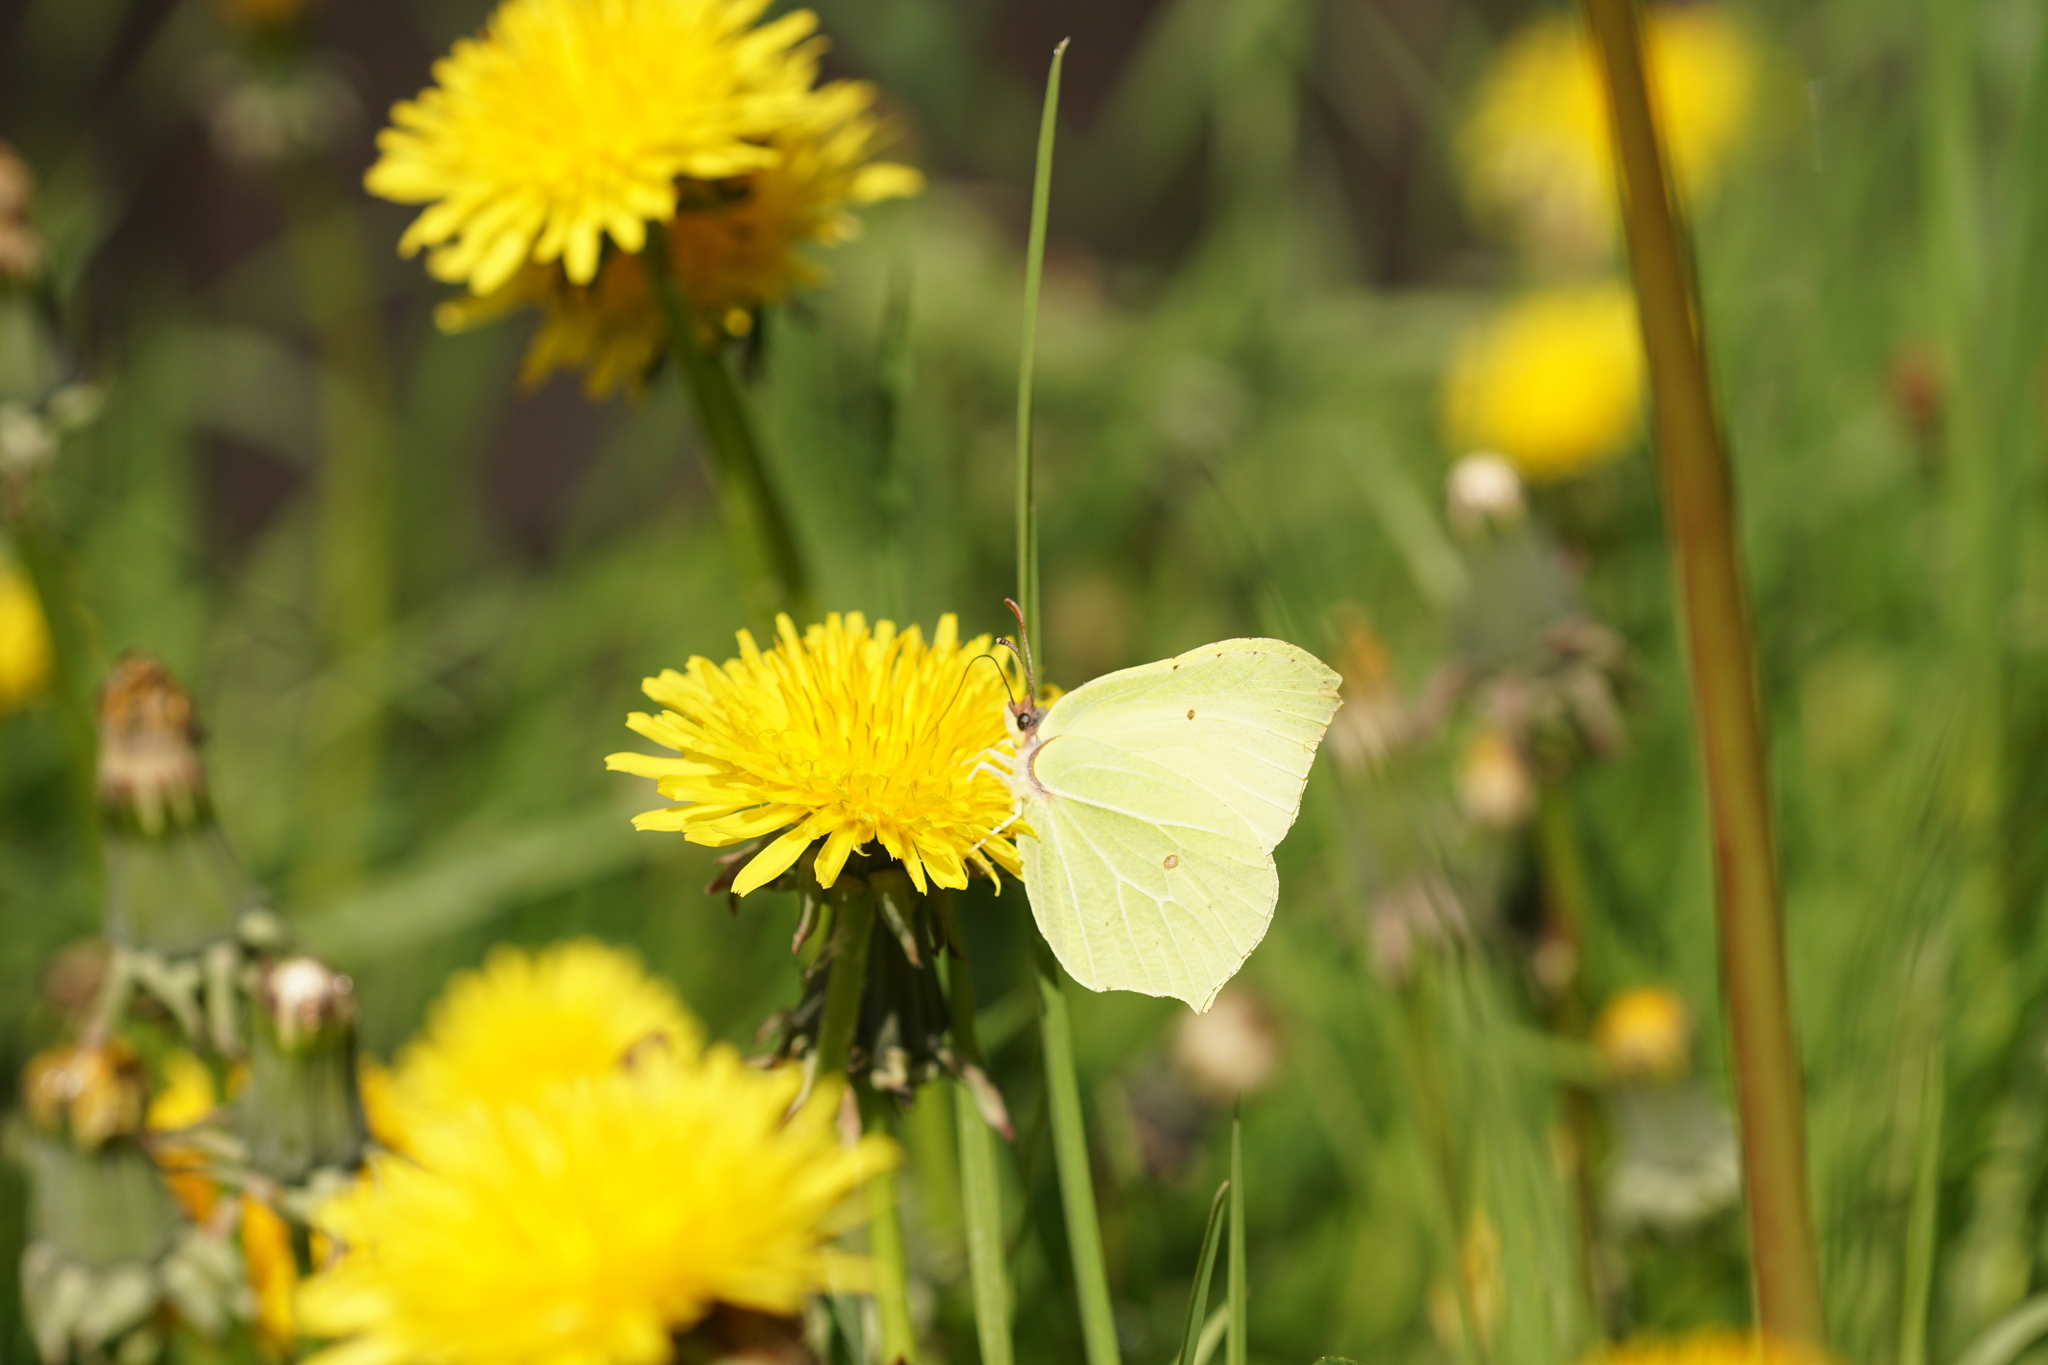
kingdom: Animalia
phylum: Arthropoda
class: Insecta
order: Lepidoptera
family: Pieridae
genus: Gonepteryx
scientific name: Gonepteryx rhamni
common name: Brimstone
